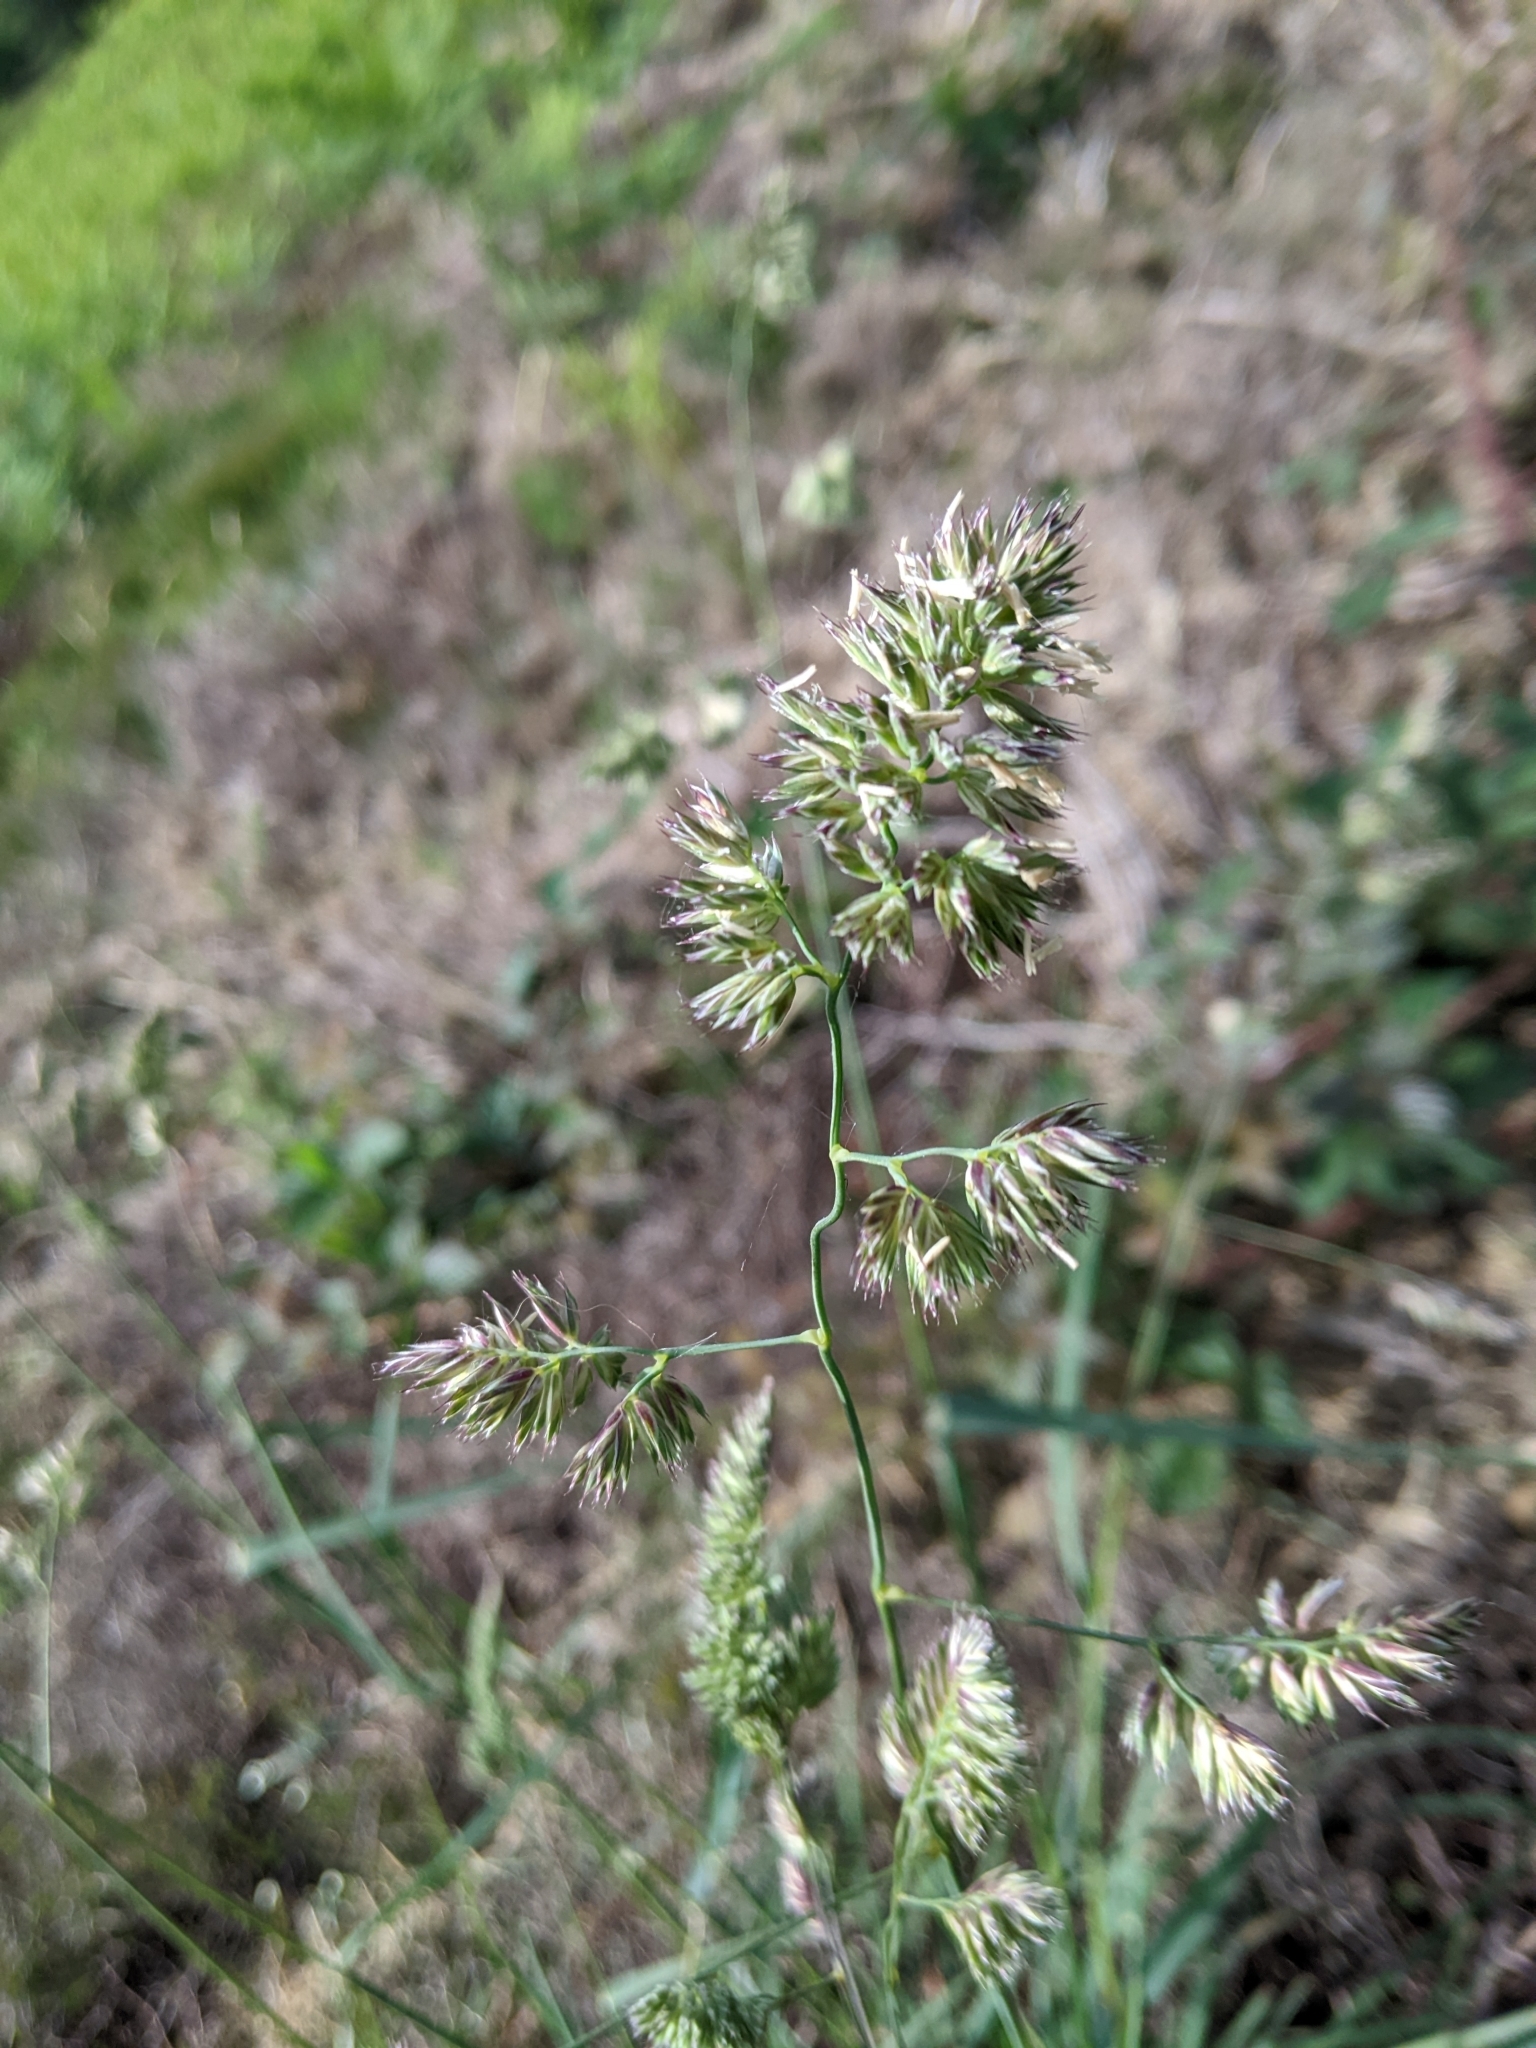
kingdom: Plantae
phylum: Tracheophyta
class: Liliopsida
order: Poales
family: Poaceae
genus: Dactylis
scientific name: Dactylis glomerata
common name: Orchardgrass
